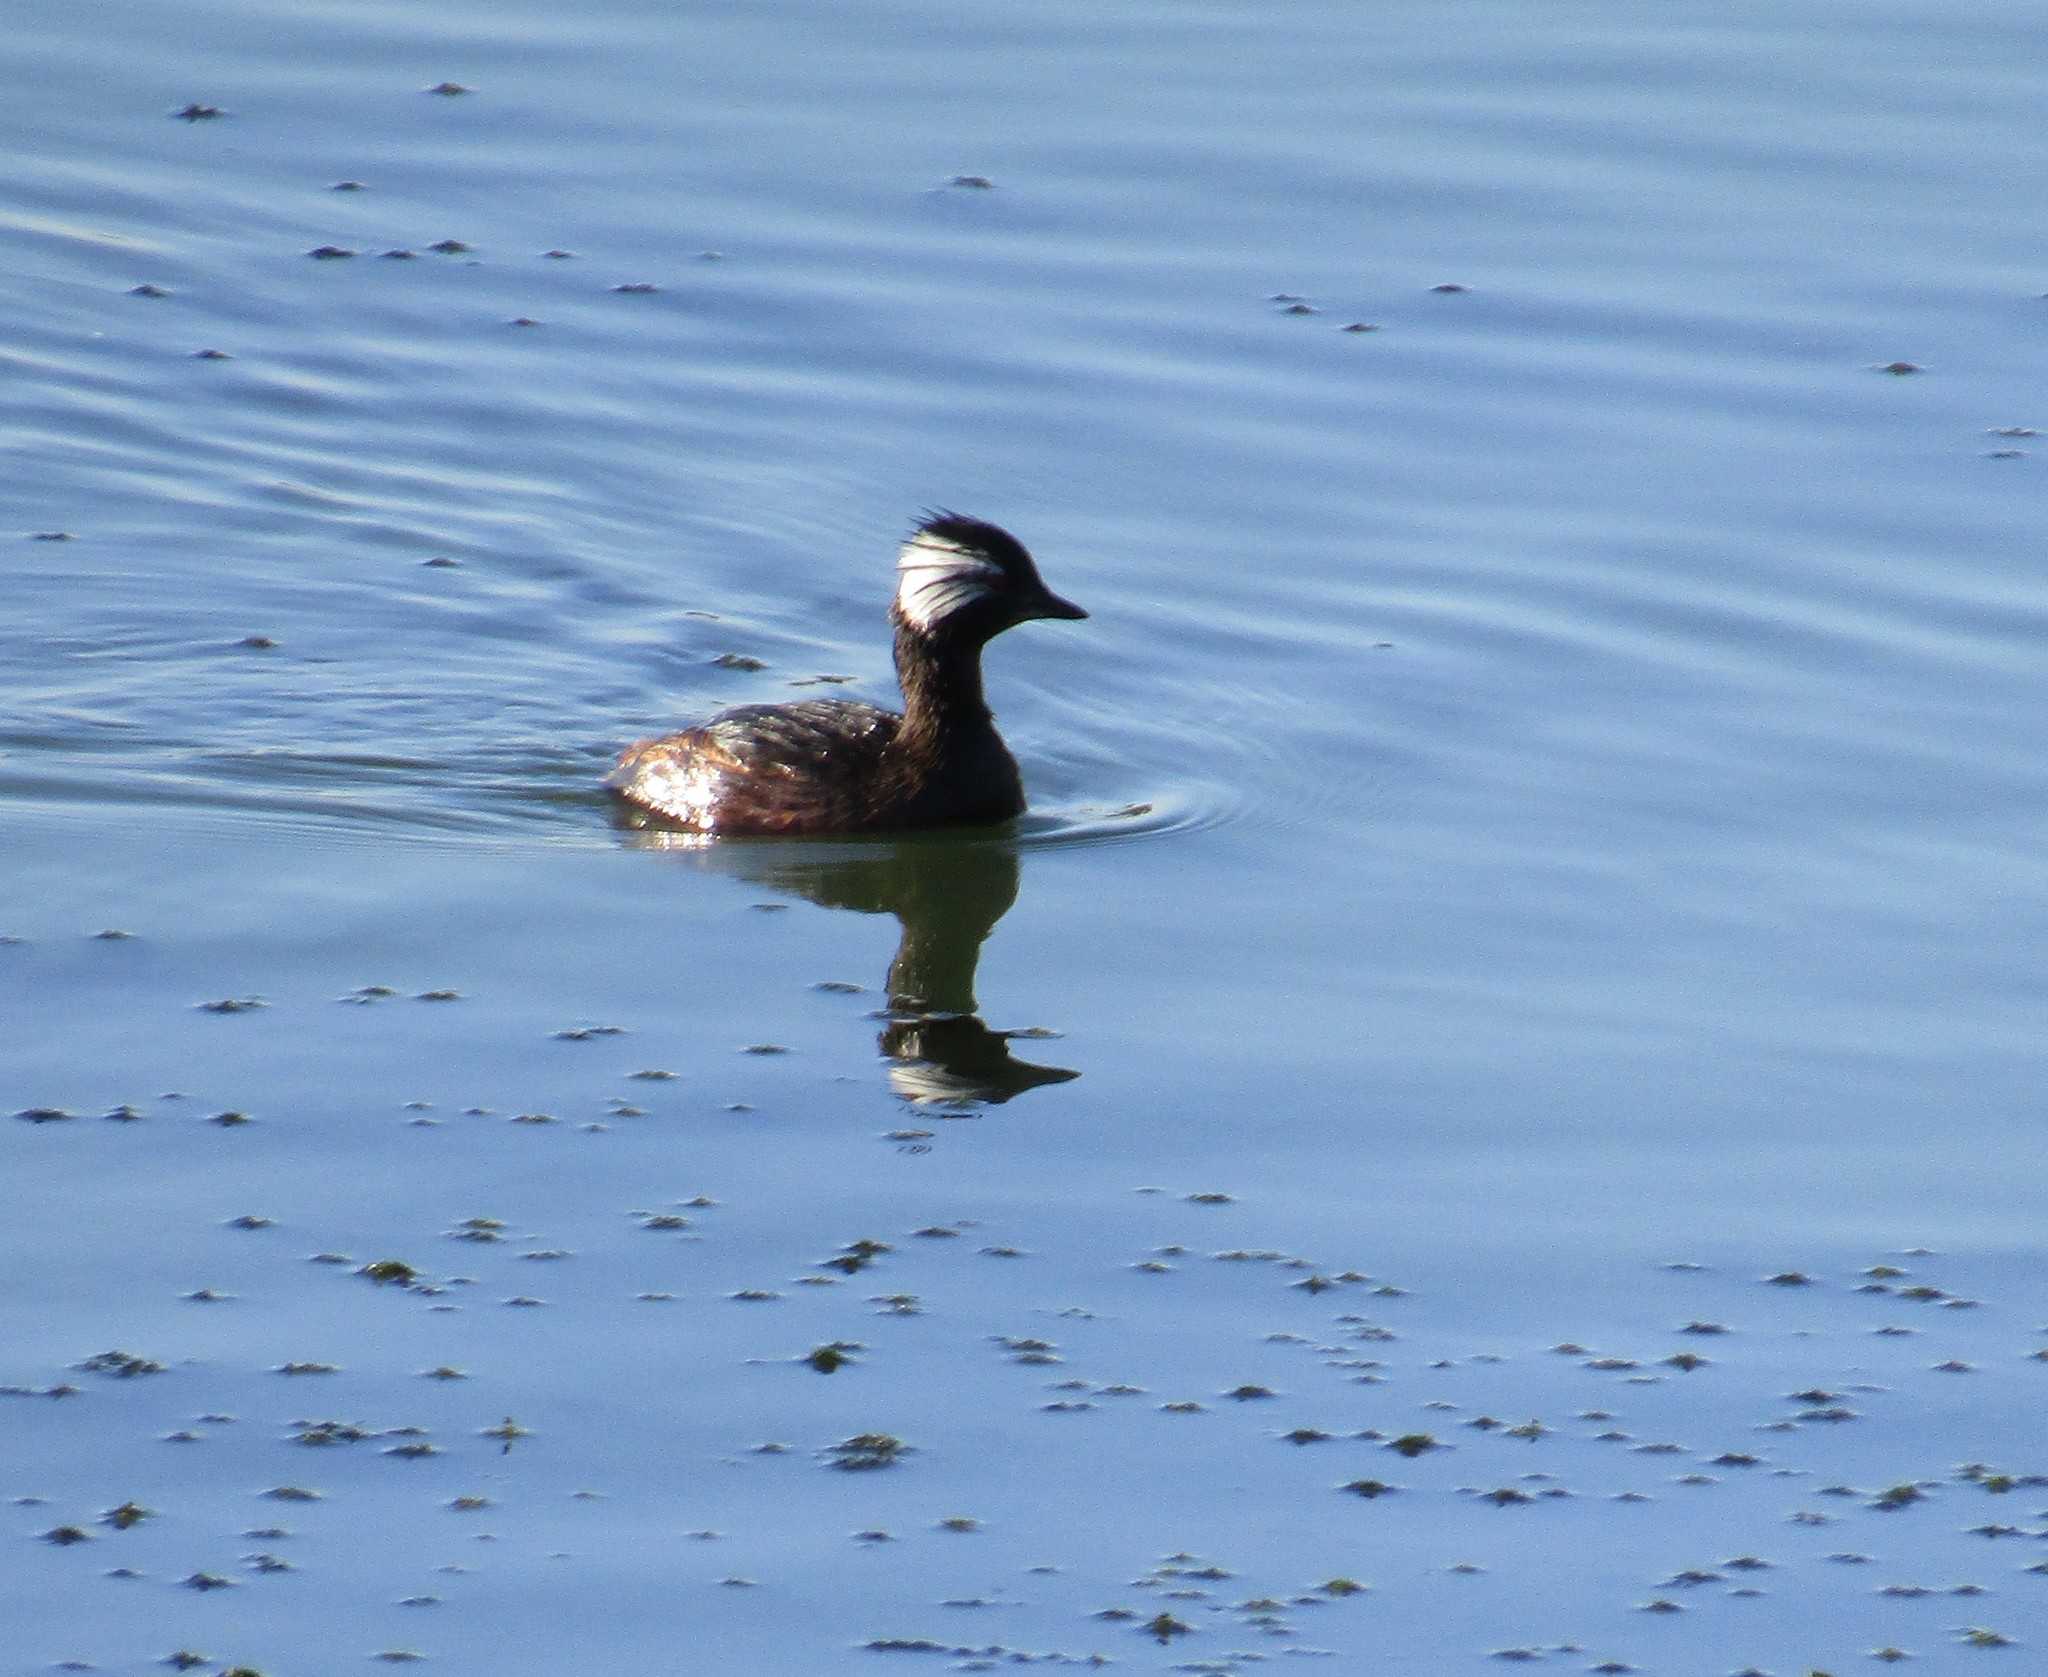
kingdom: Animalia
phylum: Chordata
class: Aves
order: Podicipediformes
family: Podicipedidae
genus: Rollandia
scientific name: Rollandia rolland
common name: White-tufted grebe
